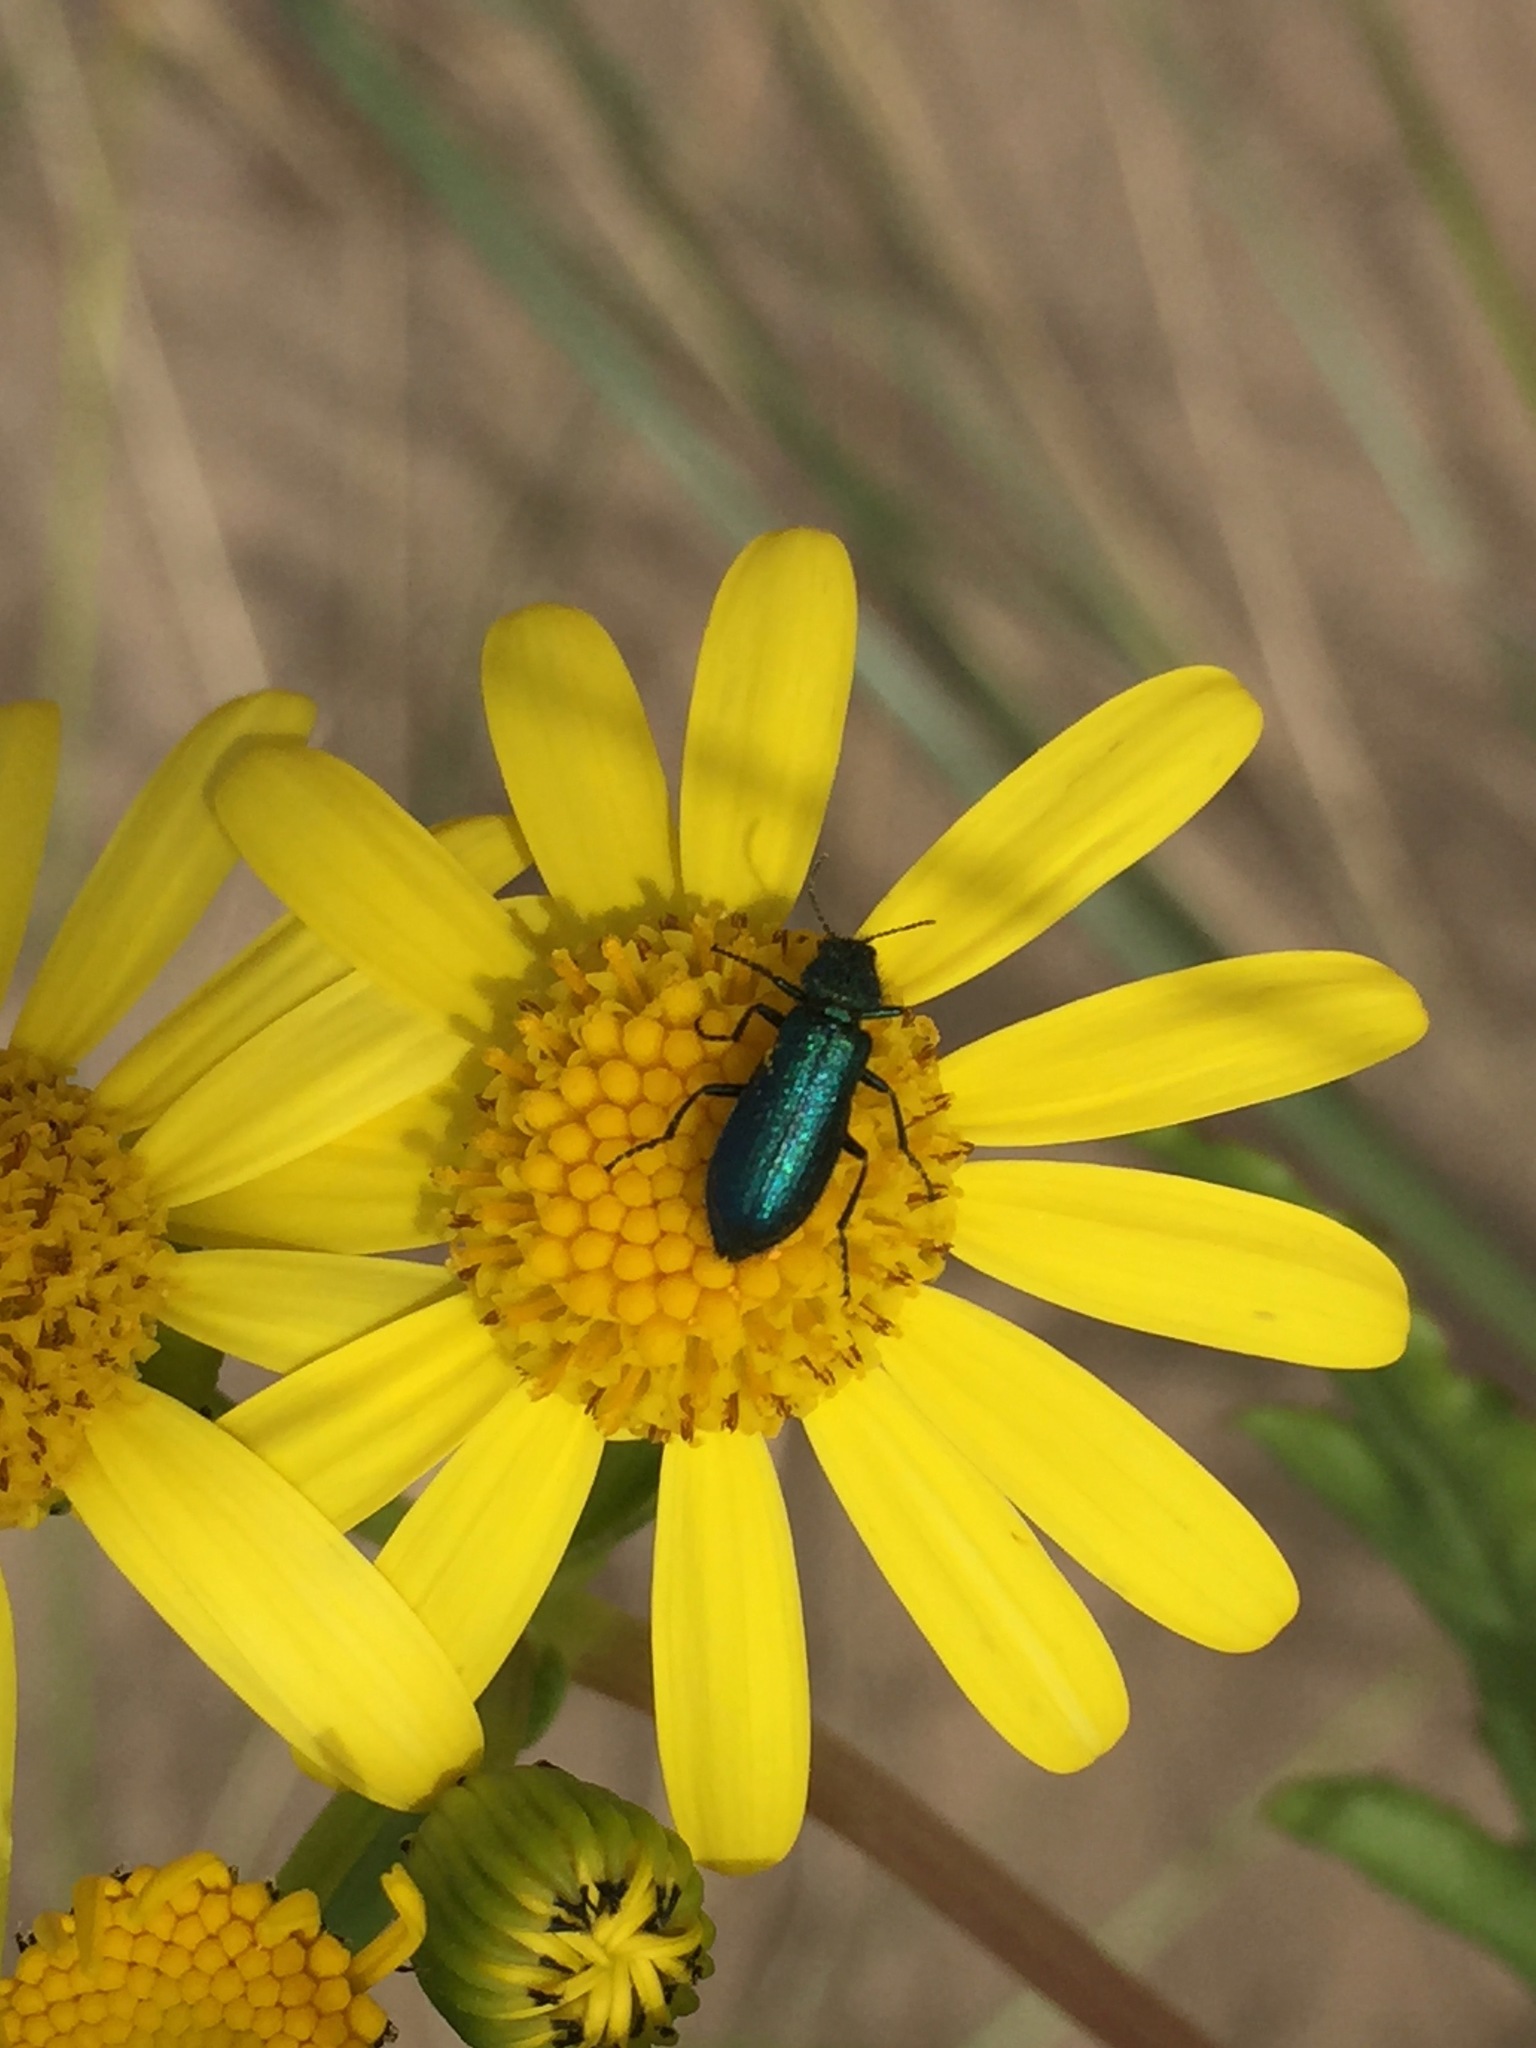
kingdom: Animalia
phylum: Arthropoda
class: Insecta
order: Coleoptera
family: Dasytidae
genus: Psilothrix
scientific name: Psilothrix viridicoerulea
